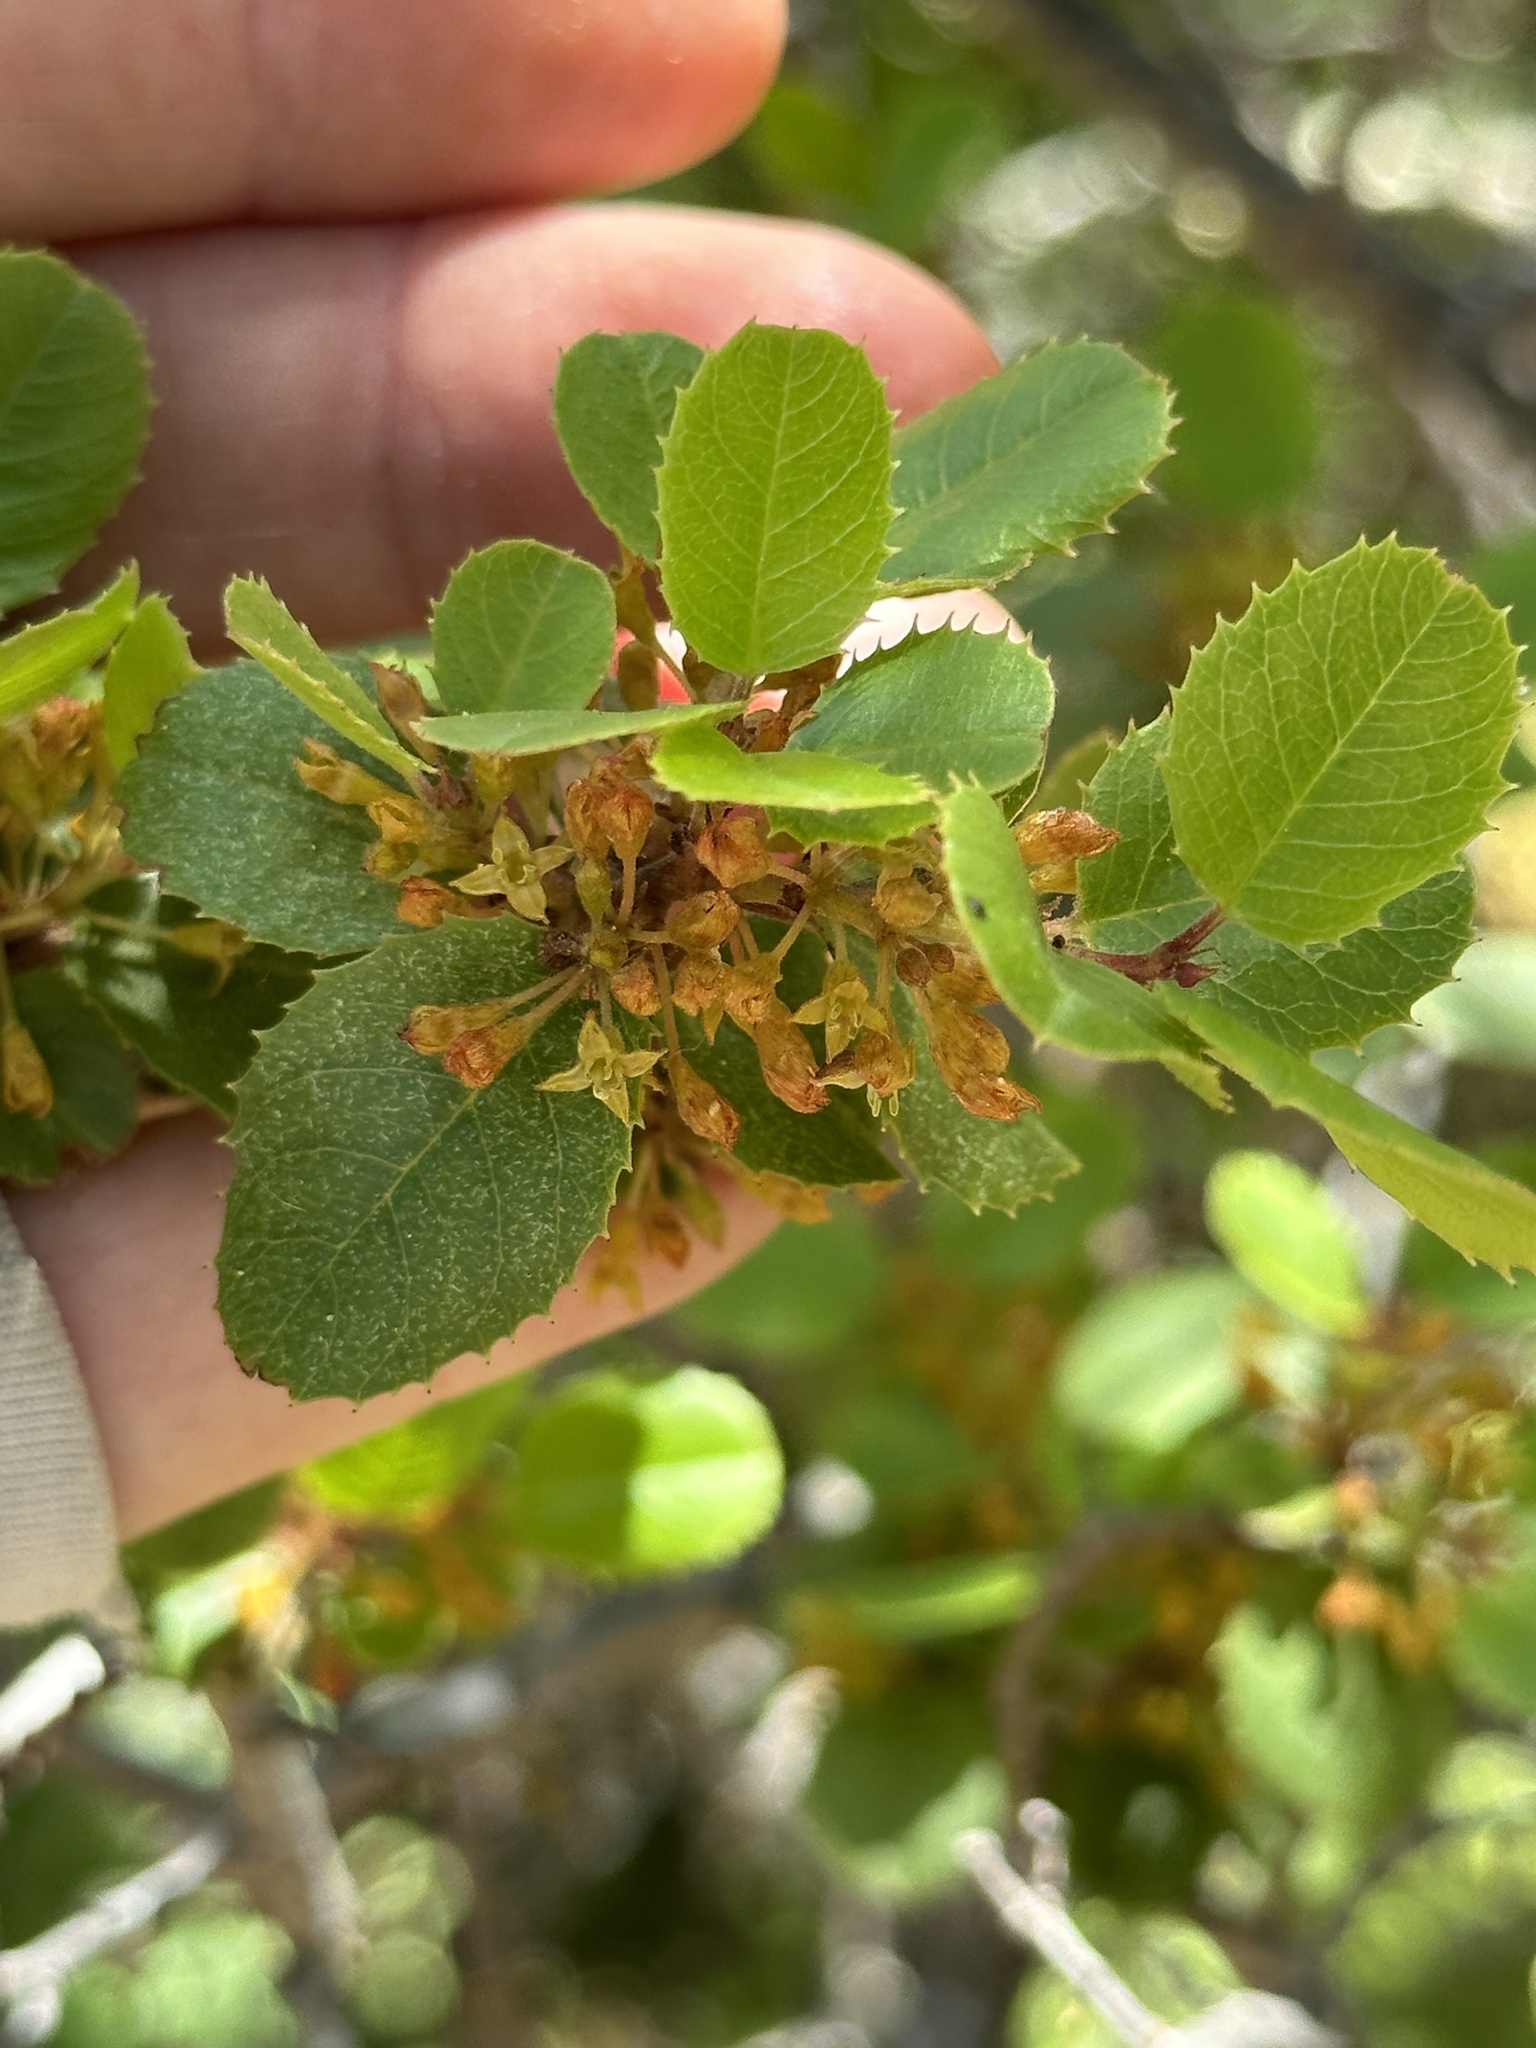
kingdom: Plantae
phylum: Tracheophyta
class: Magnoliopsida
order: Rosales
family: Rhamnaceae
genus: Endotropis
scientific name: Endotropis crocea
